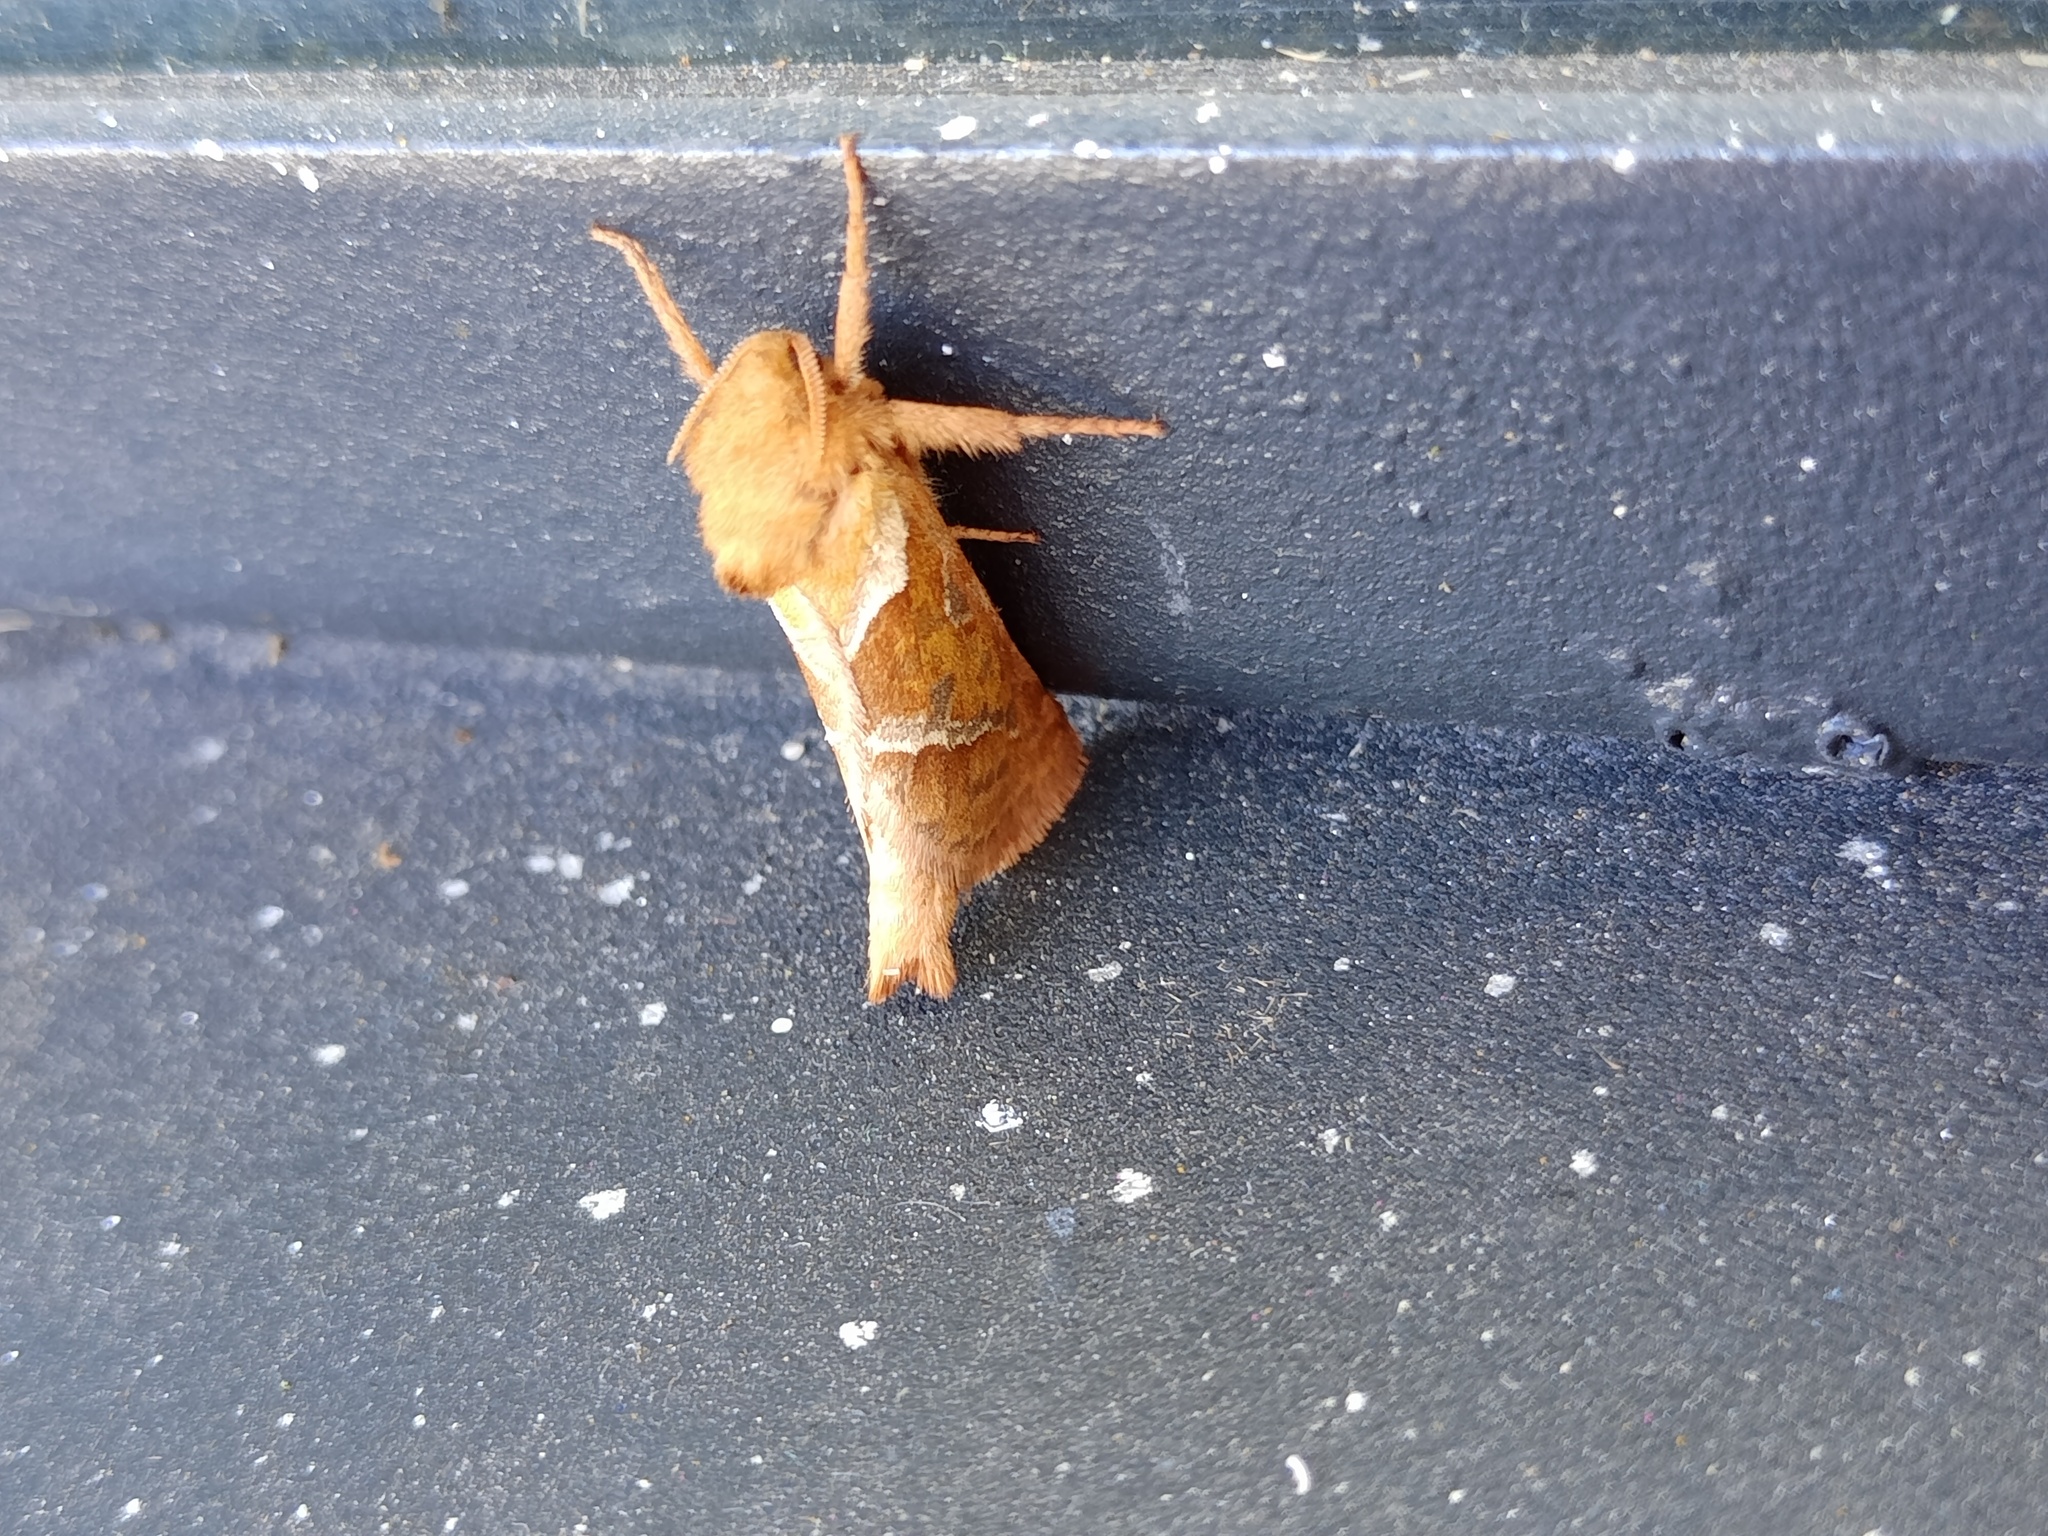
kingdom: Animalia
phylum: Arthropoda
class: Insecta
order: Lepidoptera
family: Hepialidae
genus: Triodia
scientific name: Triodia sylvina
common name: Orange swift
